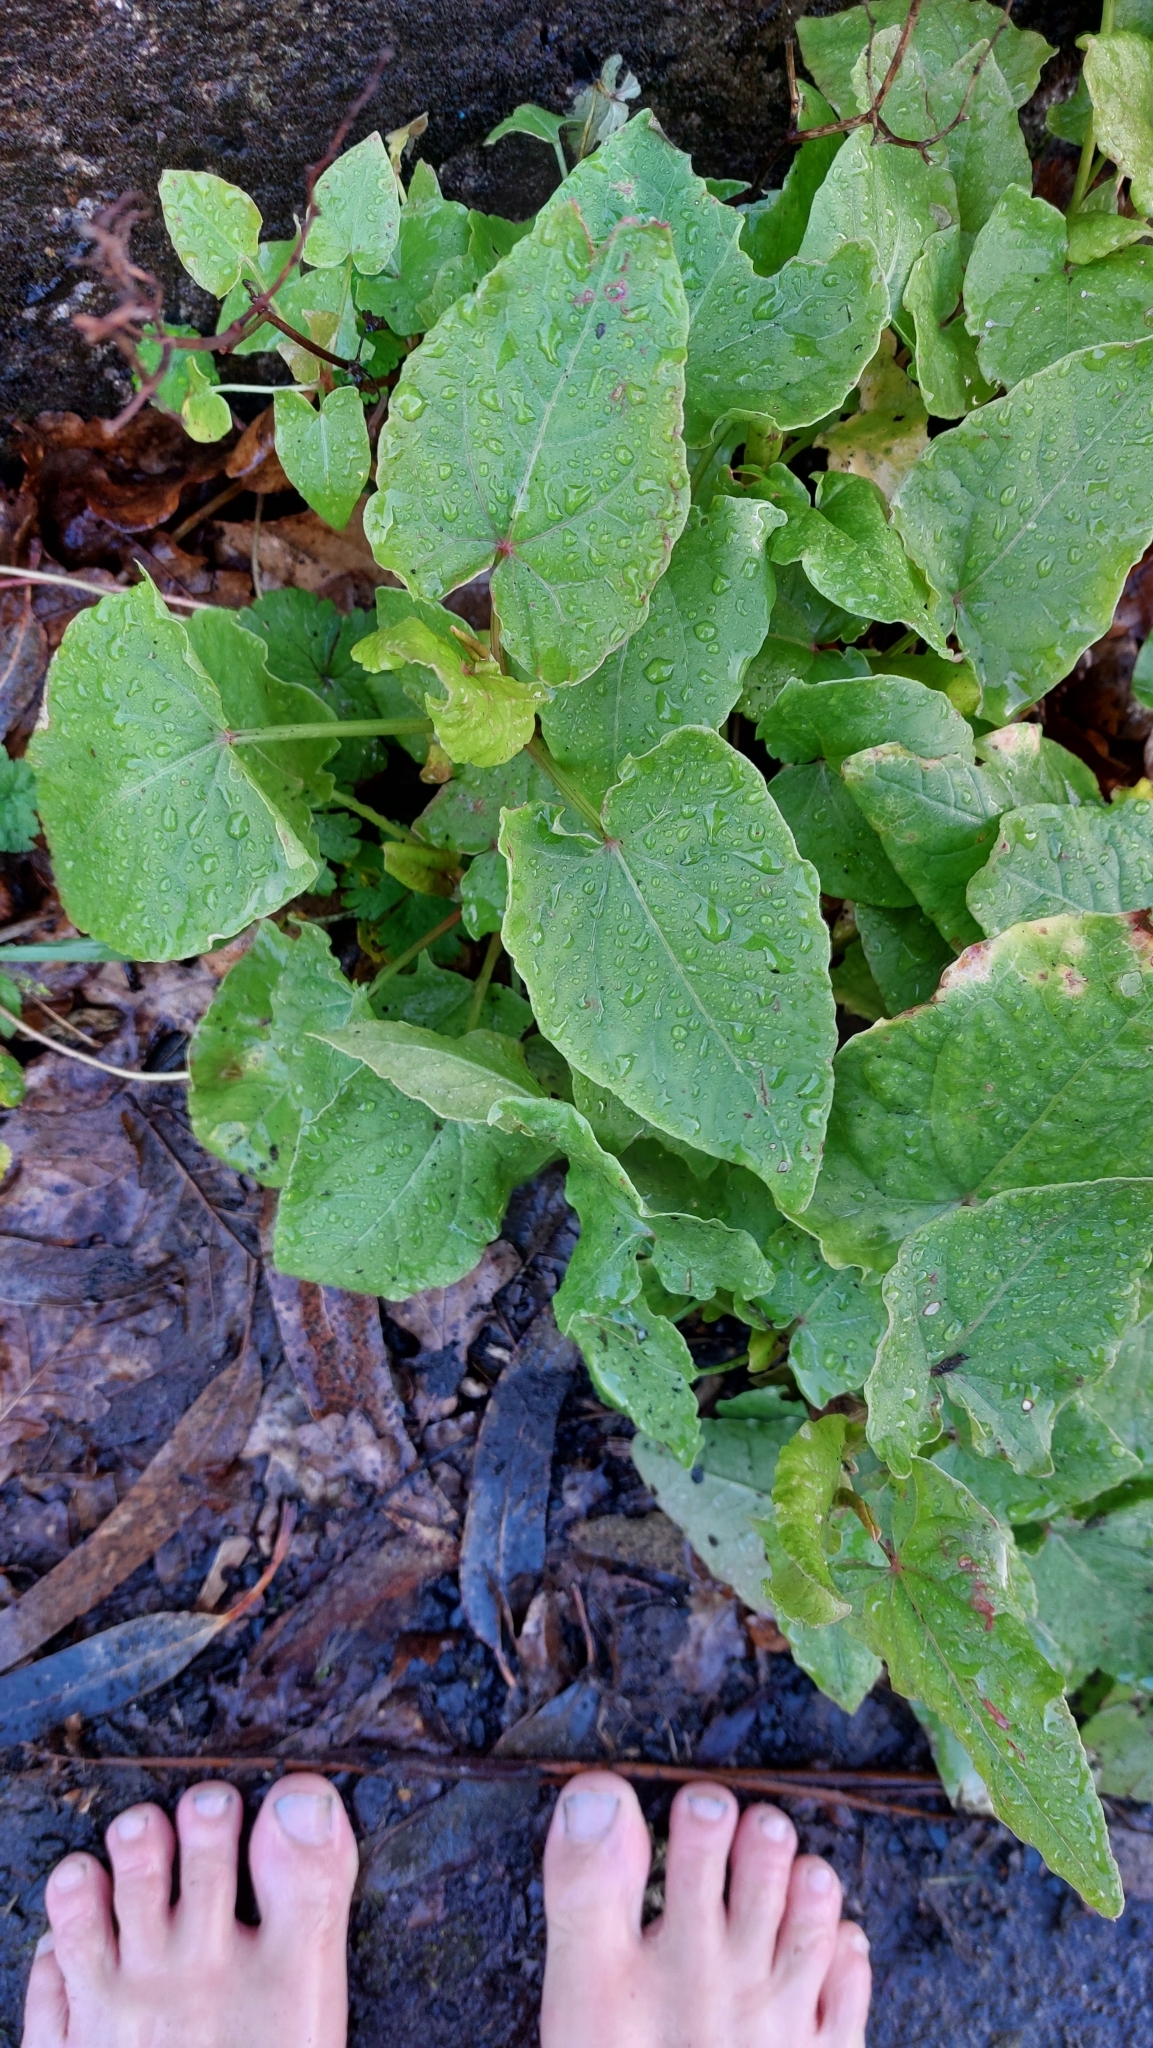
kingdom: Plantae
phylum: Tracheophyta
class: Magnoliopsida
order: Caryophyllales
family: Polygonaceae
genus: Rumex
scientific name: Rumex maderensis
